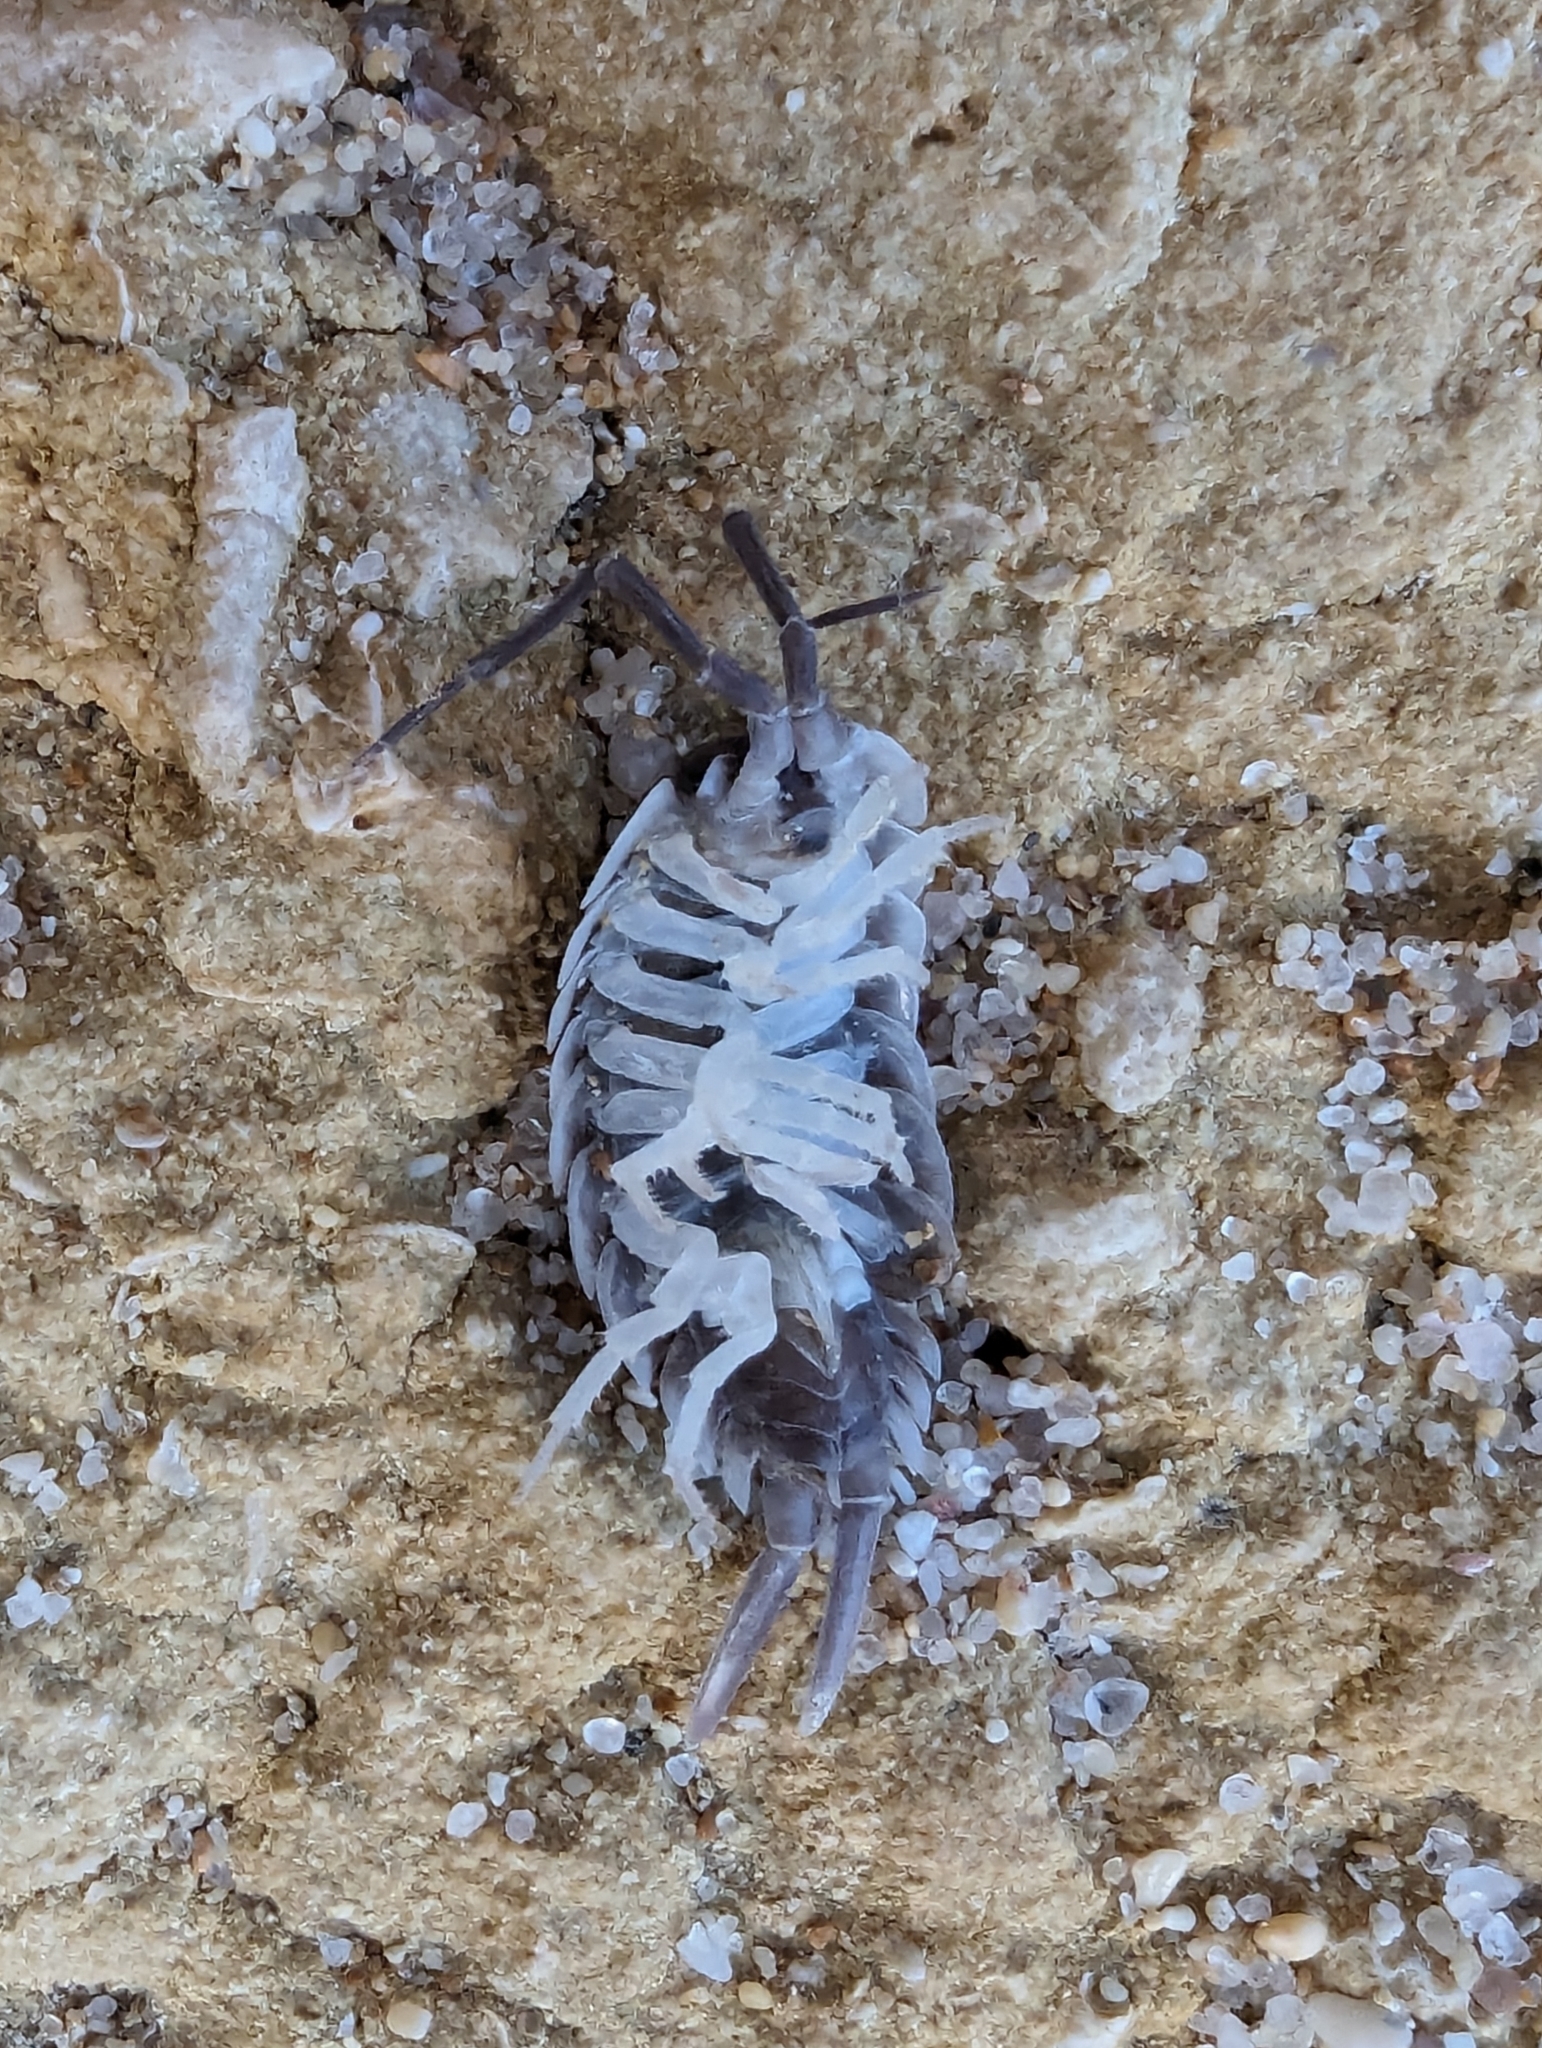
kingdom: Animalia
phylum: Arthropoda
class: Malacostraca
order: Isopoda
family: Porcellionidae
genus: Porcellio
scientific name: Porcellio hoffmannseggii
